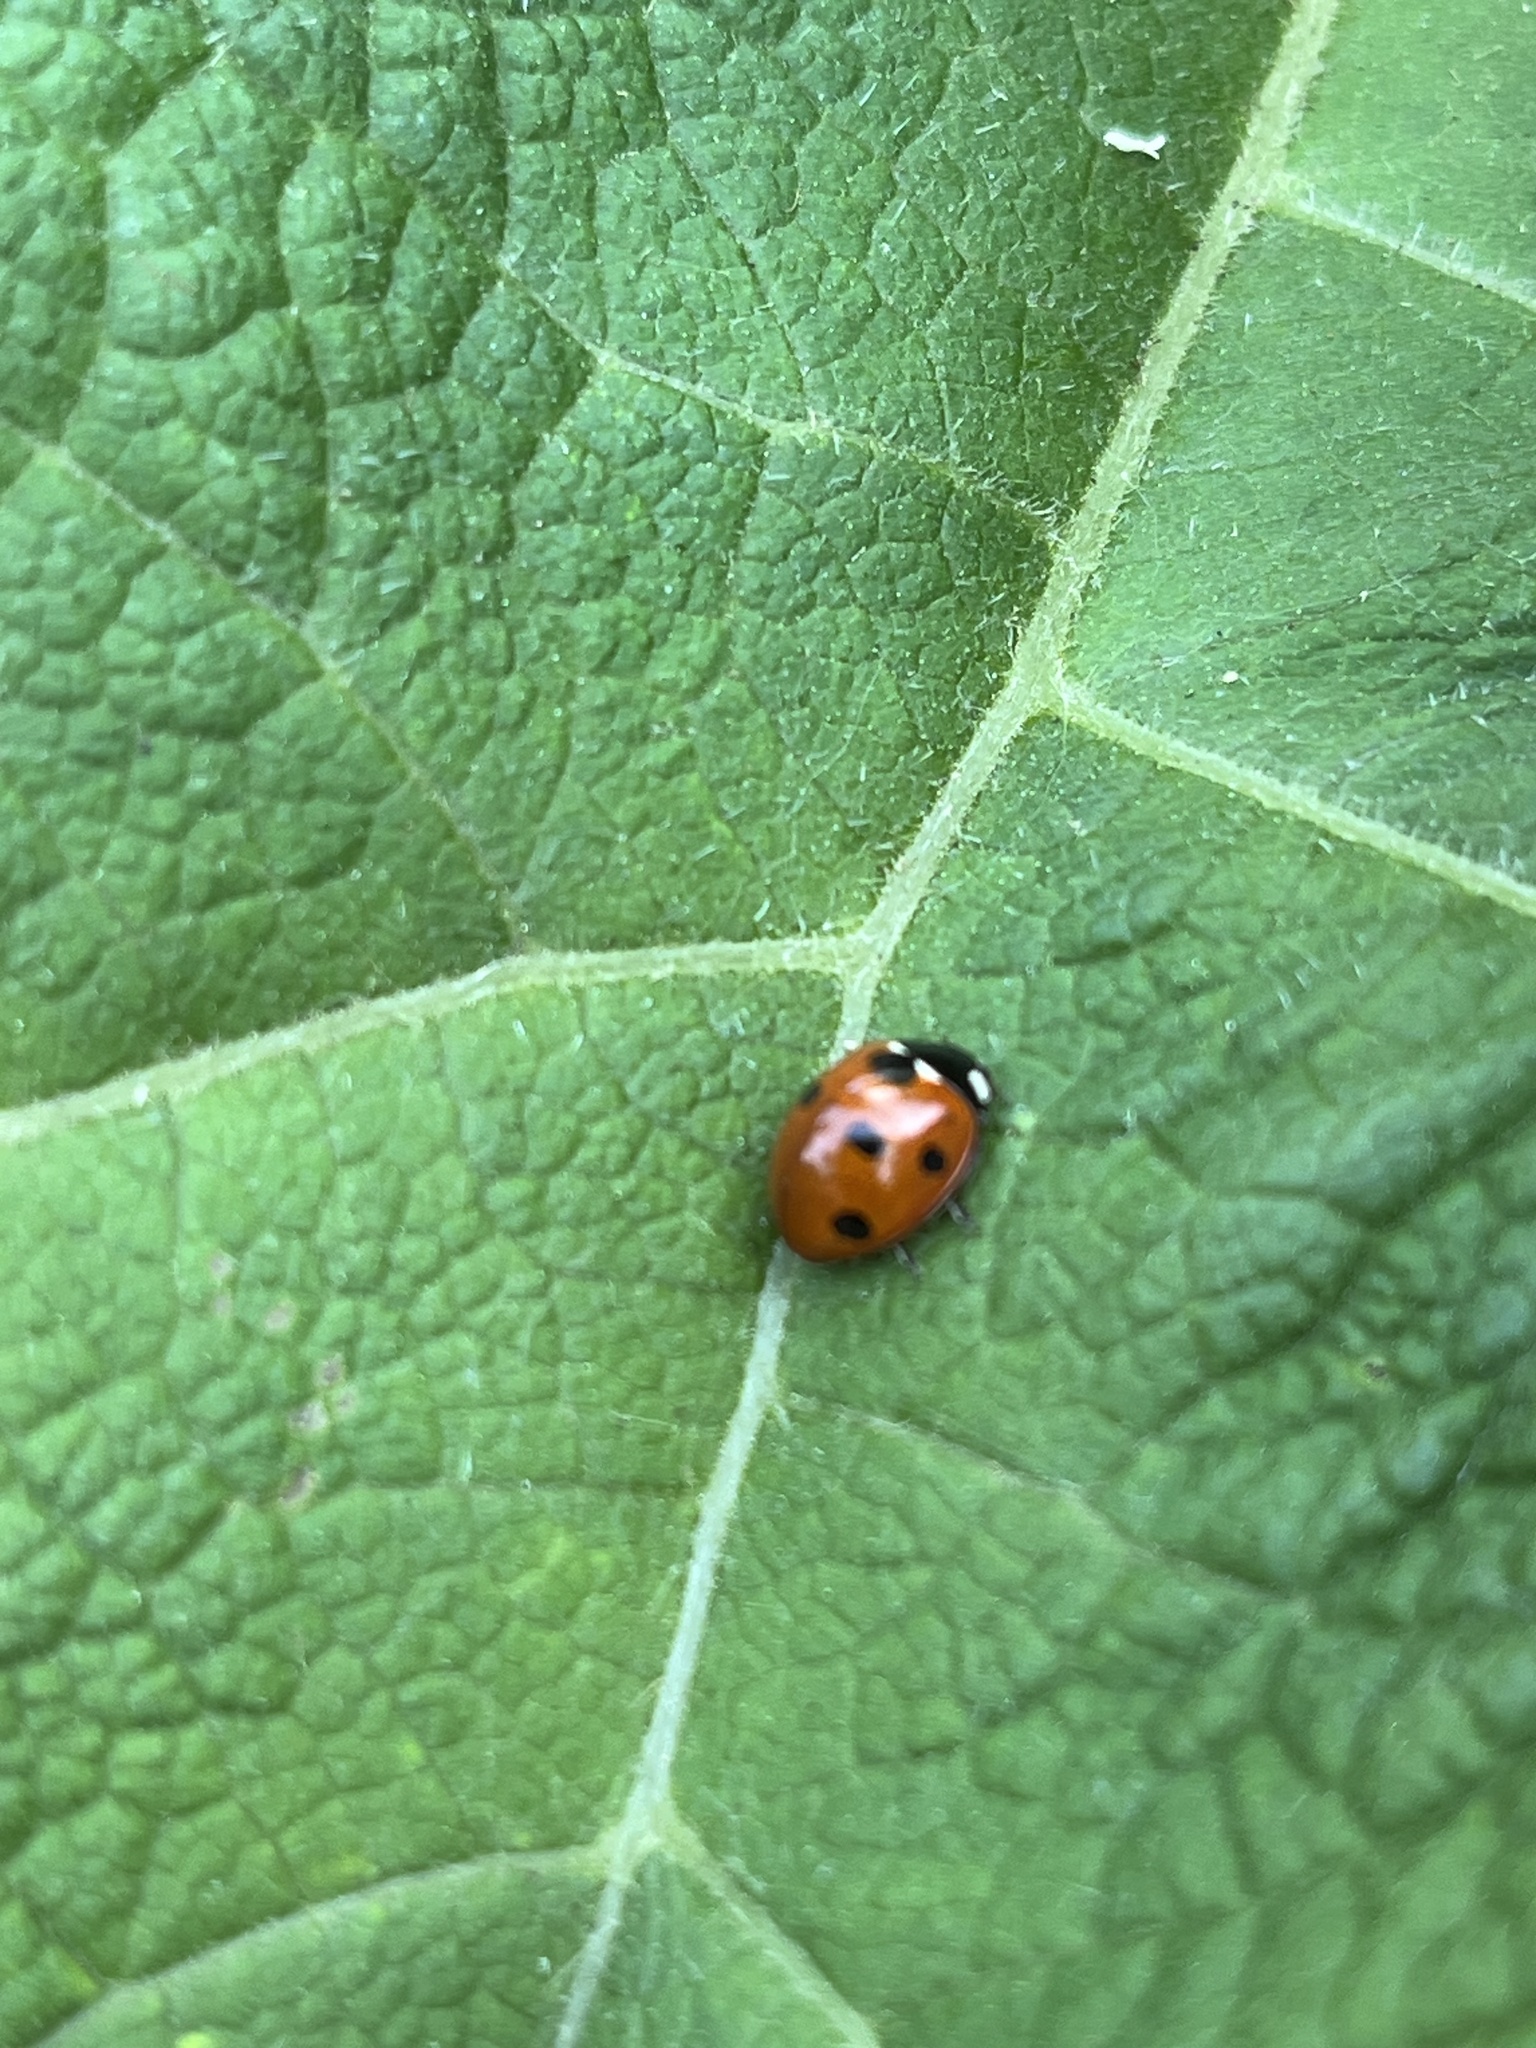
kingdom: Animalia
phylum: Arthropoda
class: Insecta
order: Coleoptera
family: Coccinellidae
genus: Coccinella
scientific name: Coccinella septempunctata
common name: Sevenspotted lady beetle
